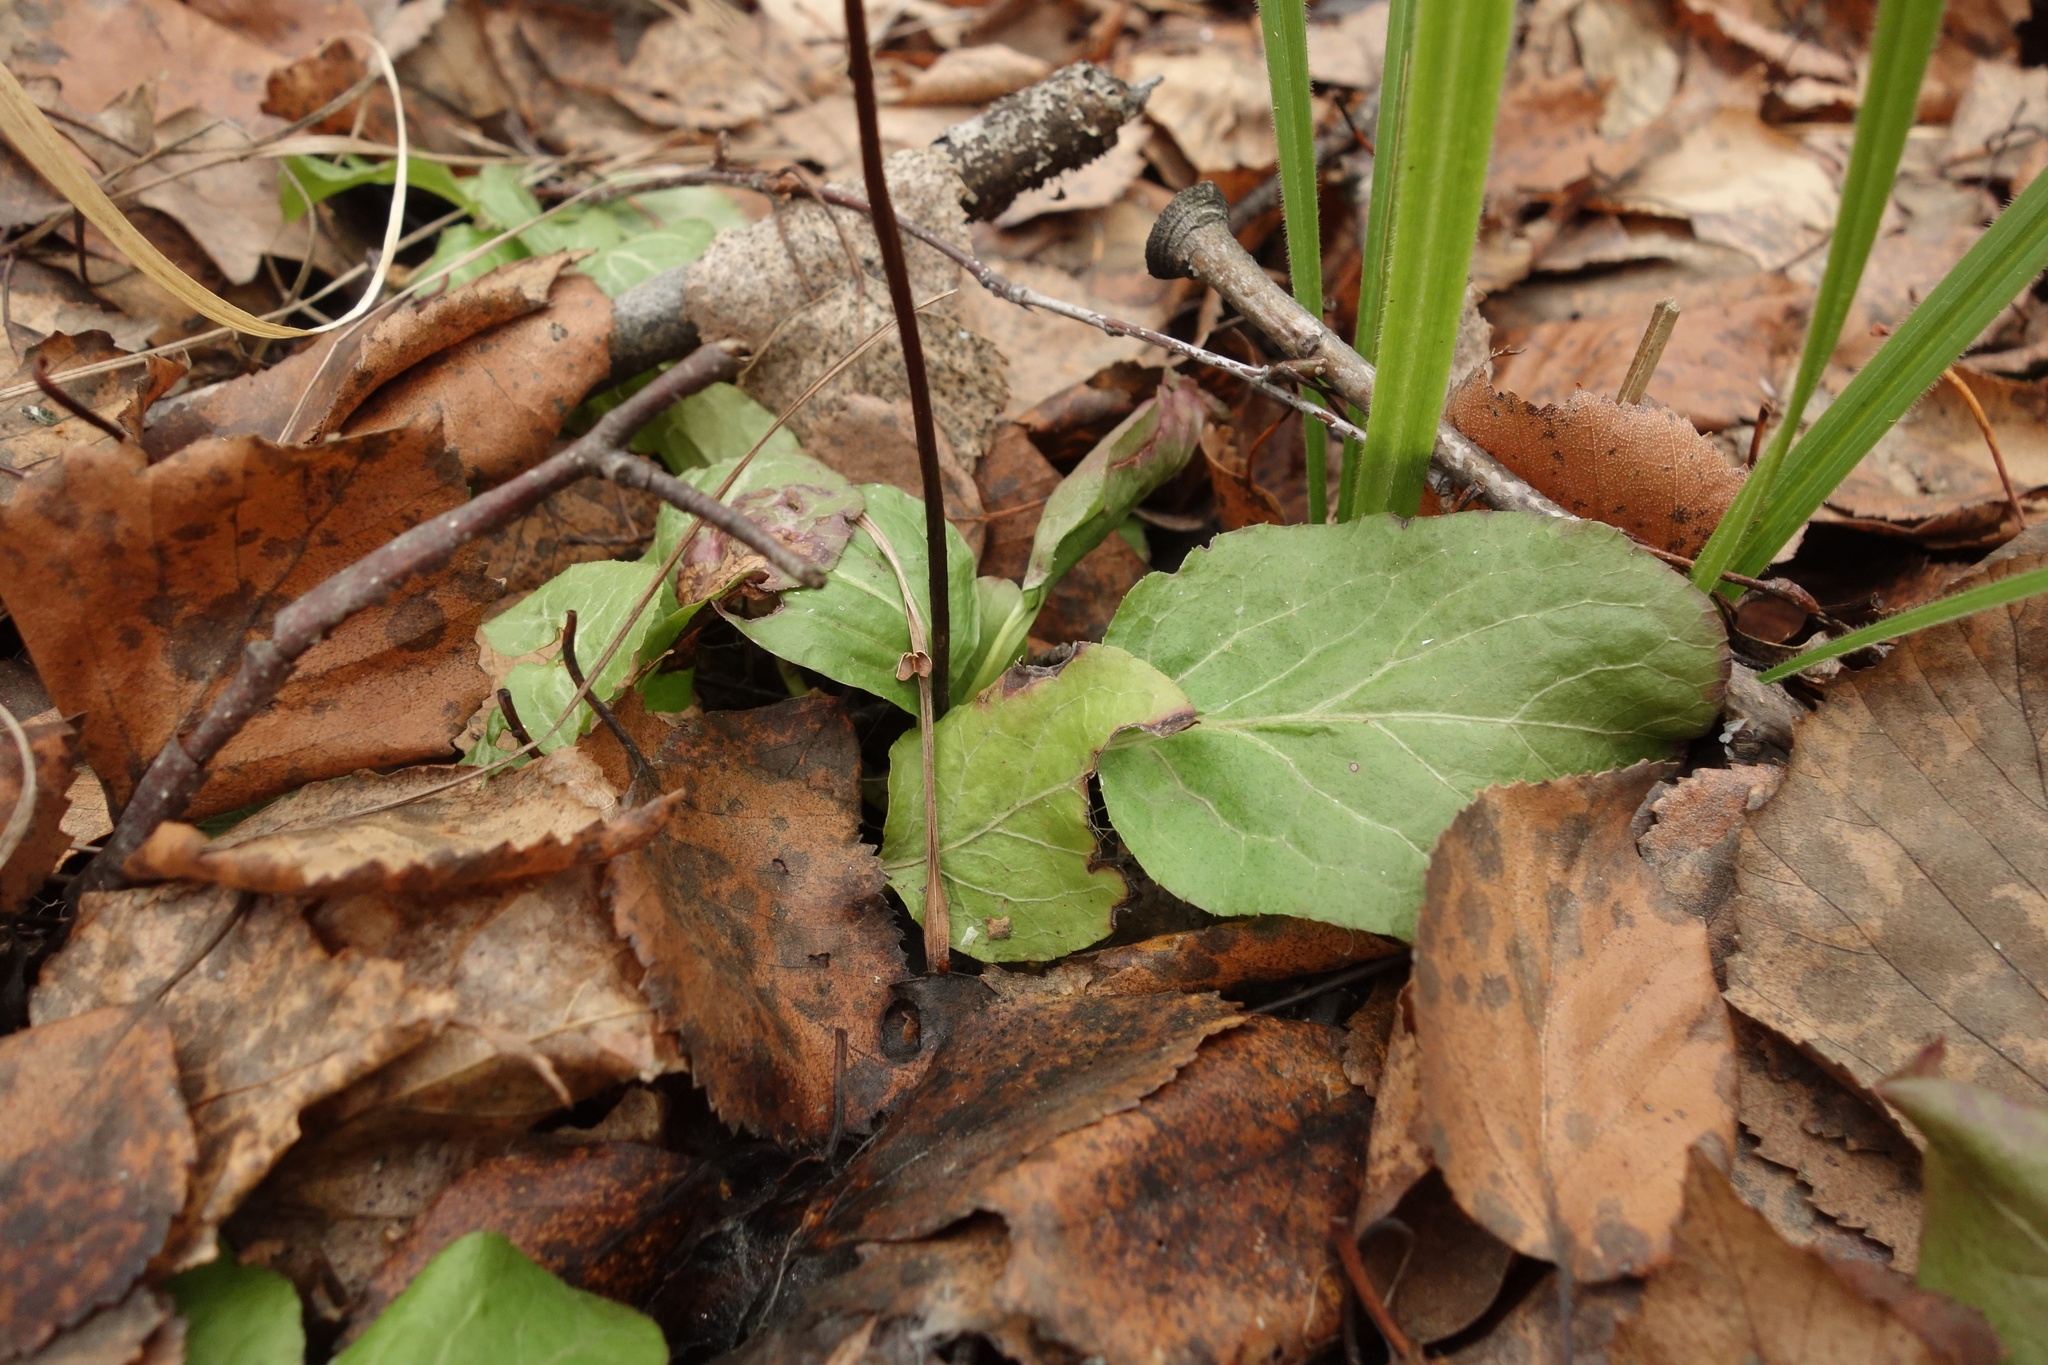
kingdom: Plantae
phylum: Tracheophyta
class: Magnoliopsida
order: Ericales
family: Ericaceae
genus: Pyrola
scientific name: Pyrola minor
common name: Common wintergreen
